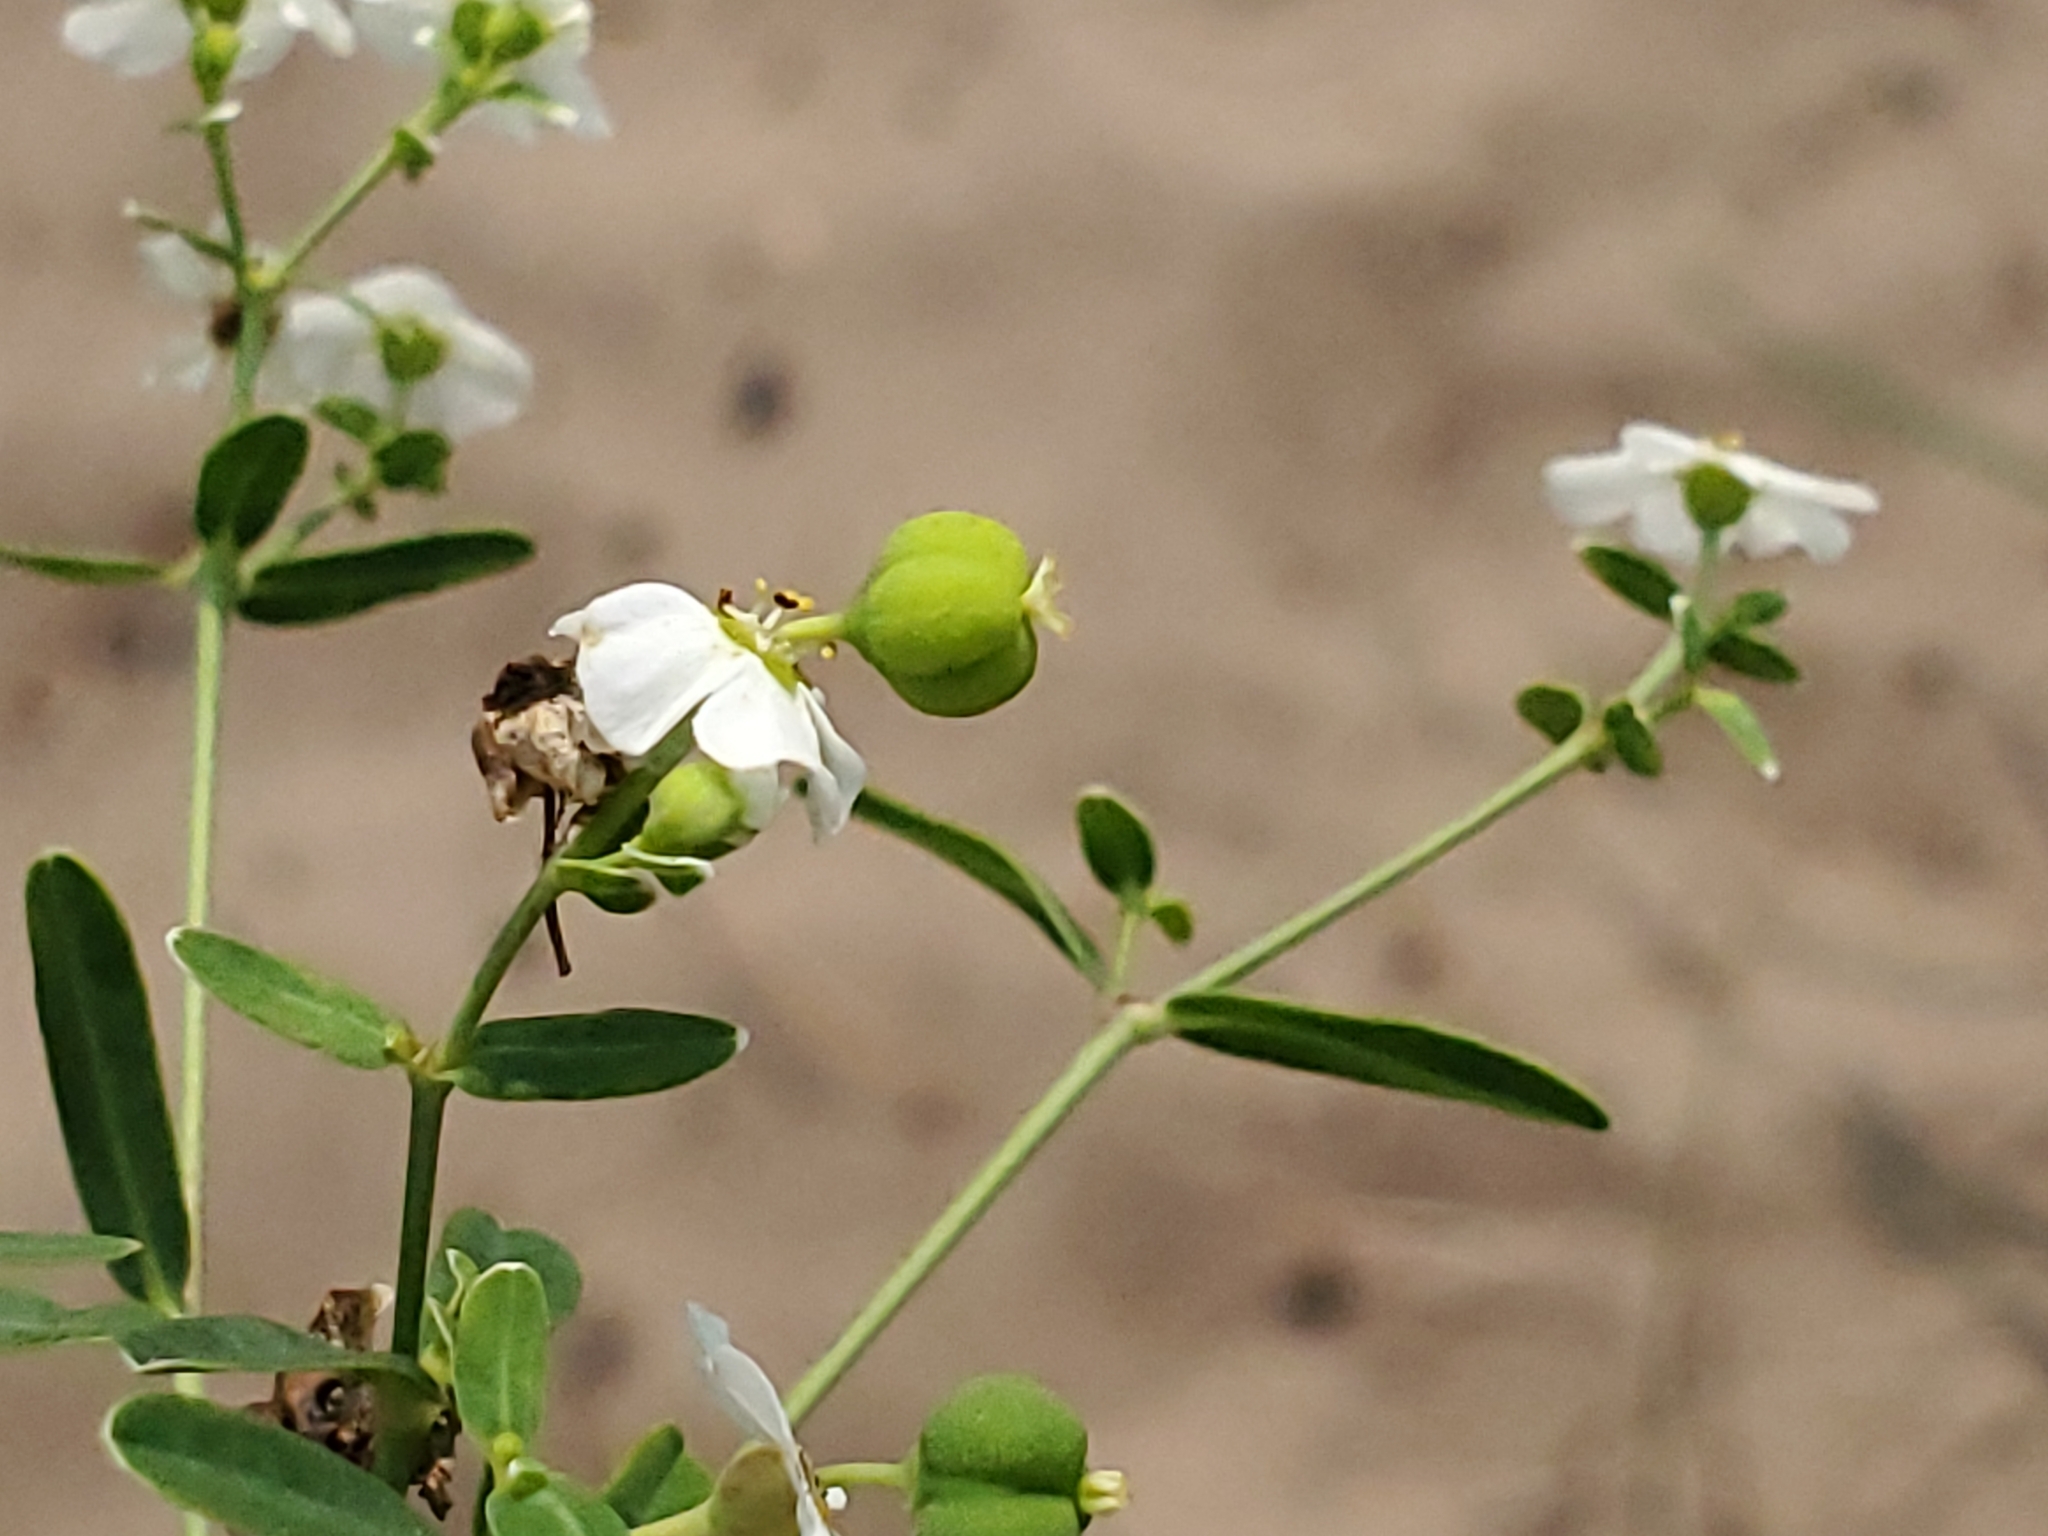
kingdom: Plantae
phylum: Tracheophyta
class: Magnoliopsida
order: Malpighiales
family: Euphorbiaceae
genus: Euphorbia
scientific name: Euphorbia corollata
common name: Flowering spurge
